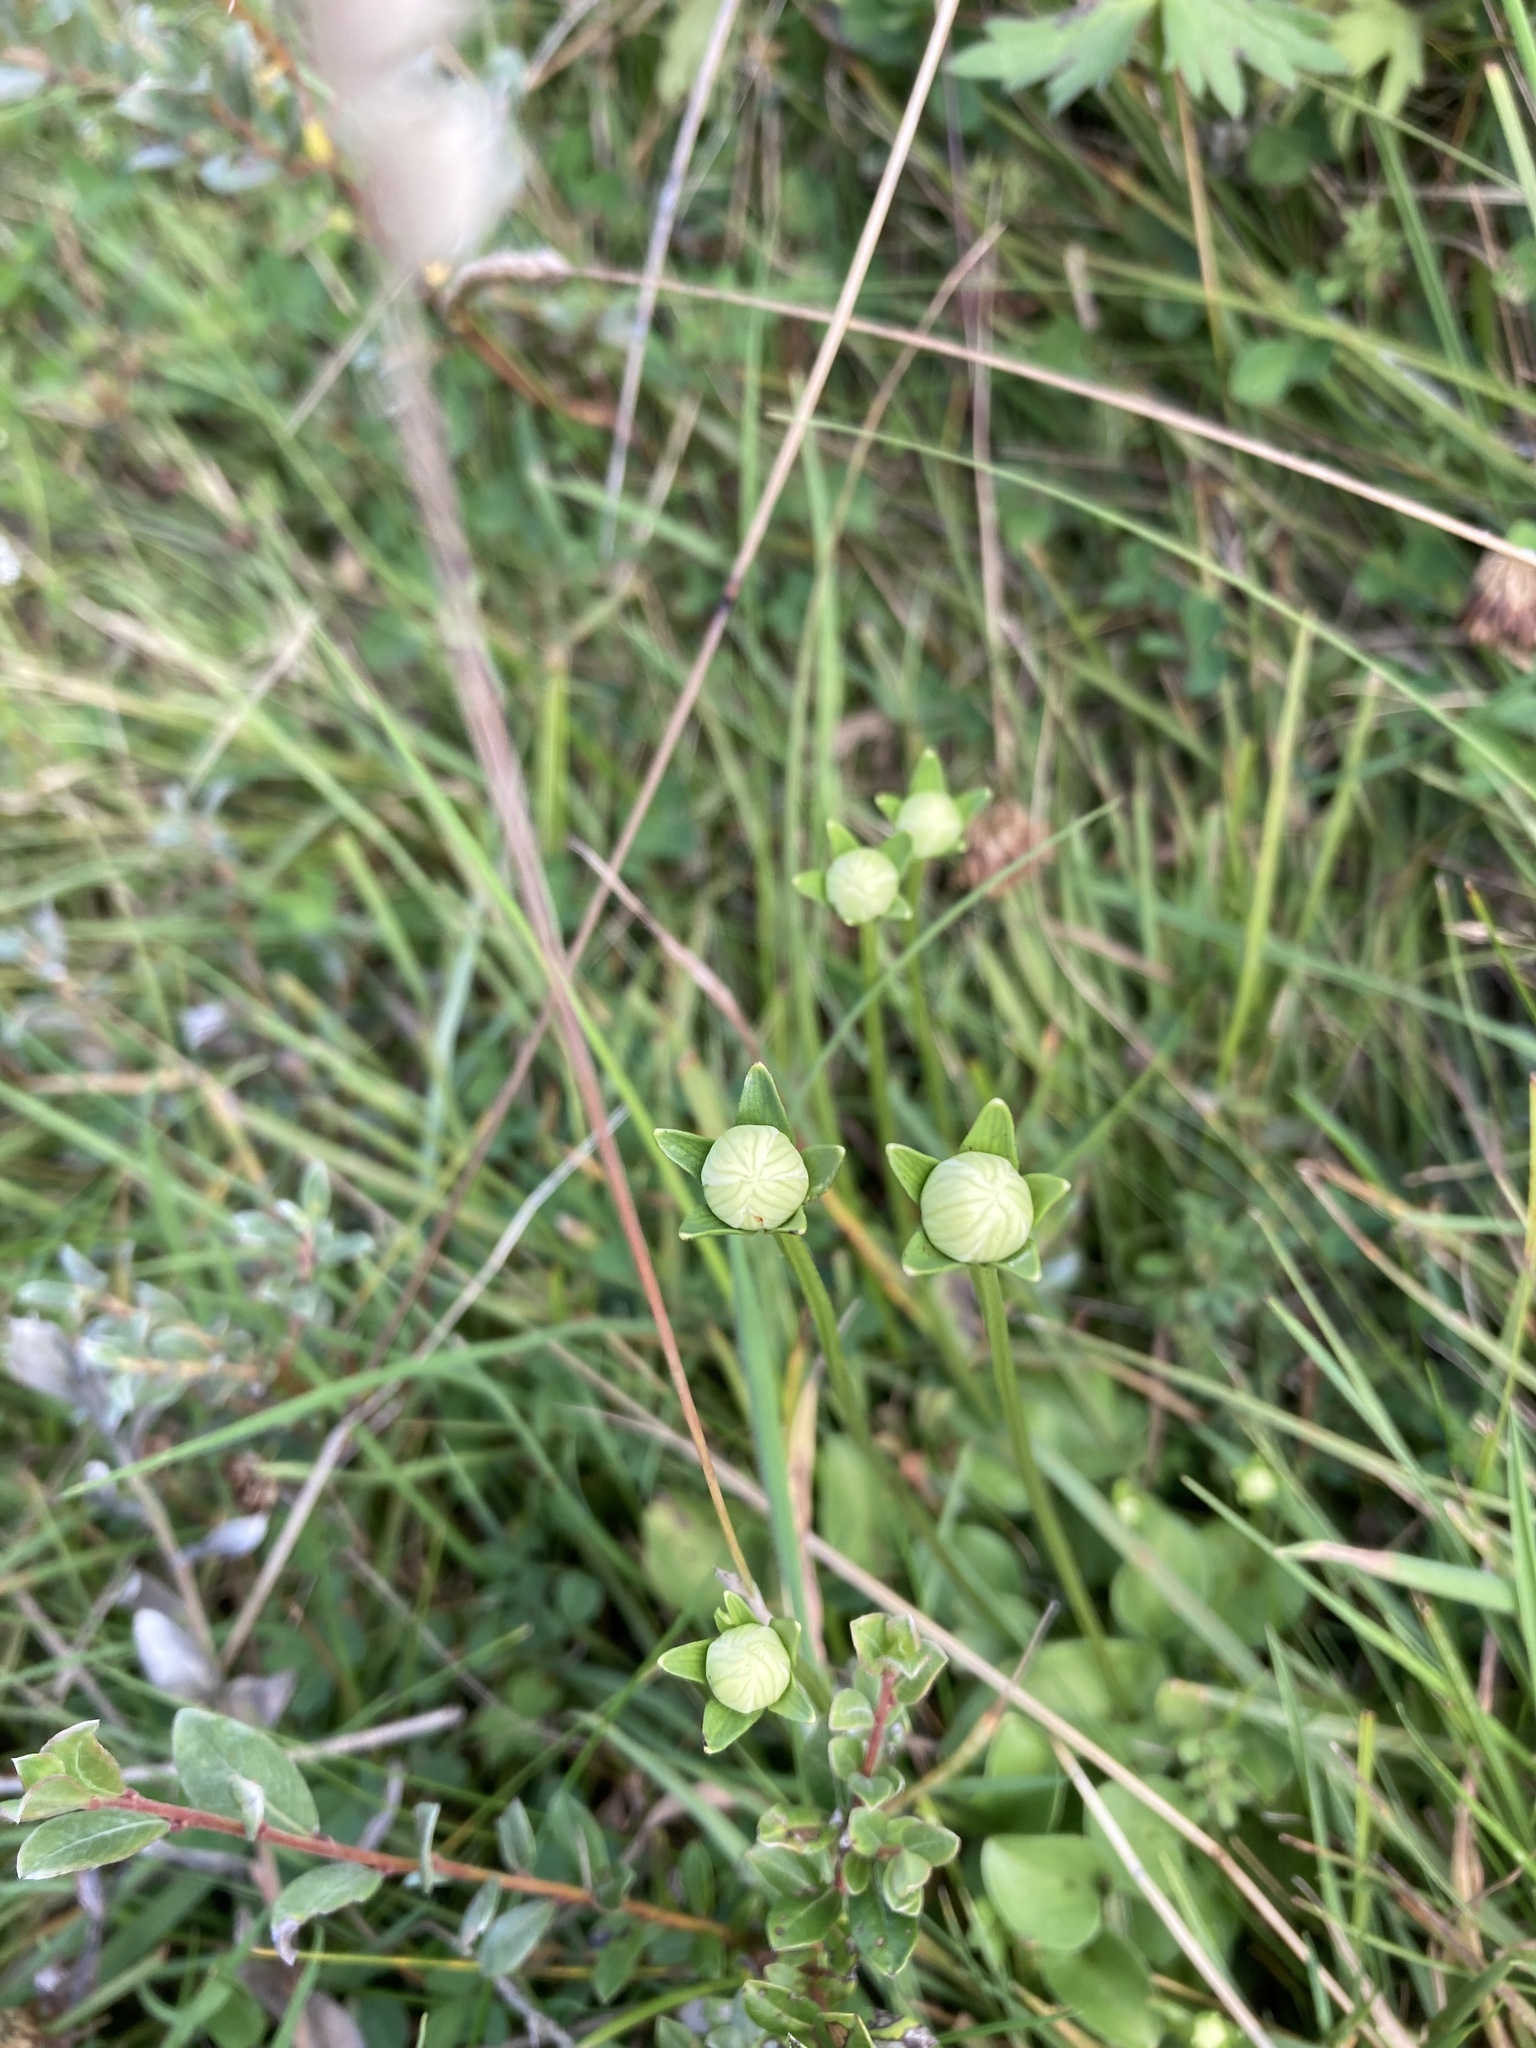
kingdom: Plantae
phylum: Tracheophyta
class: Magnoliopsida
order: Celastrales
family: Parnassiaceae
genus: Parnassia
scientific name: Parnassia palustris
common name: Grass-of-parnassus
